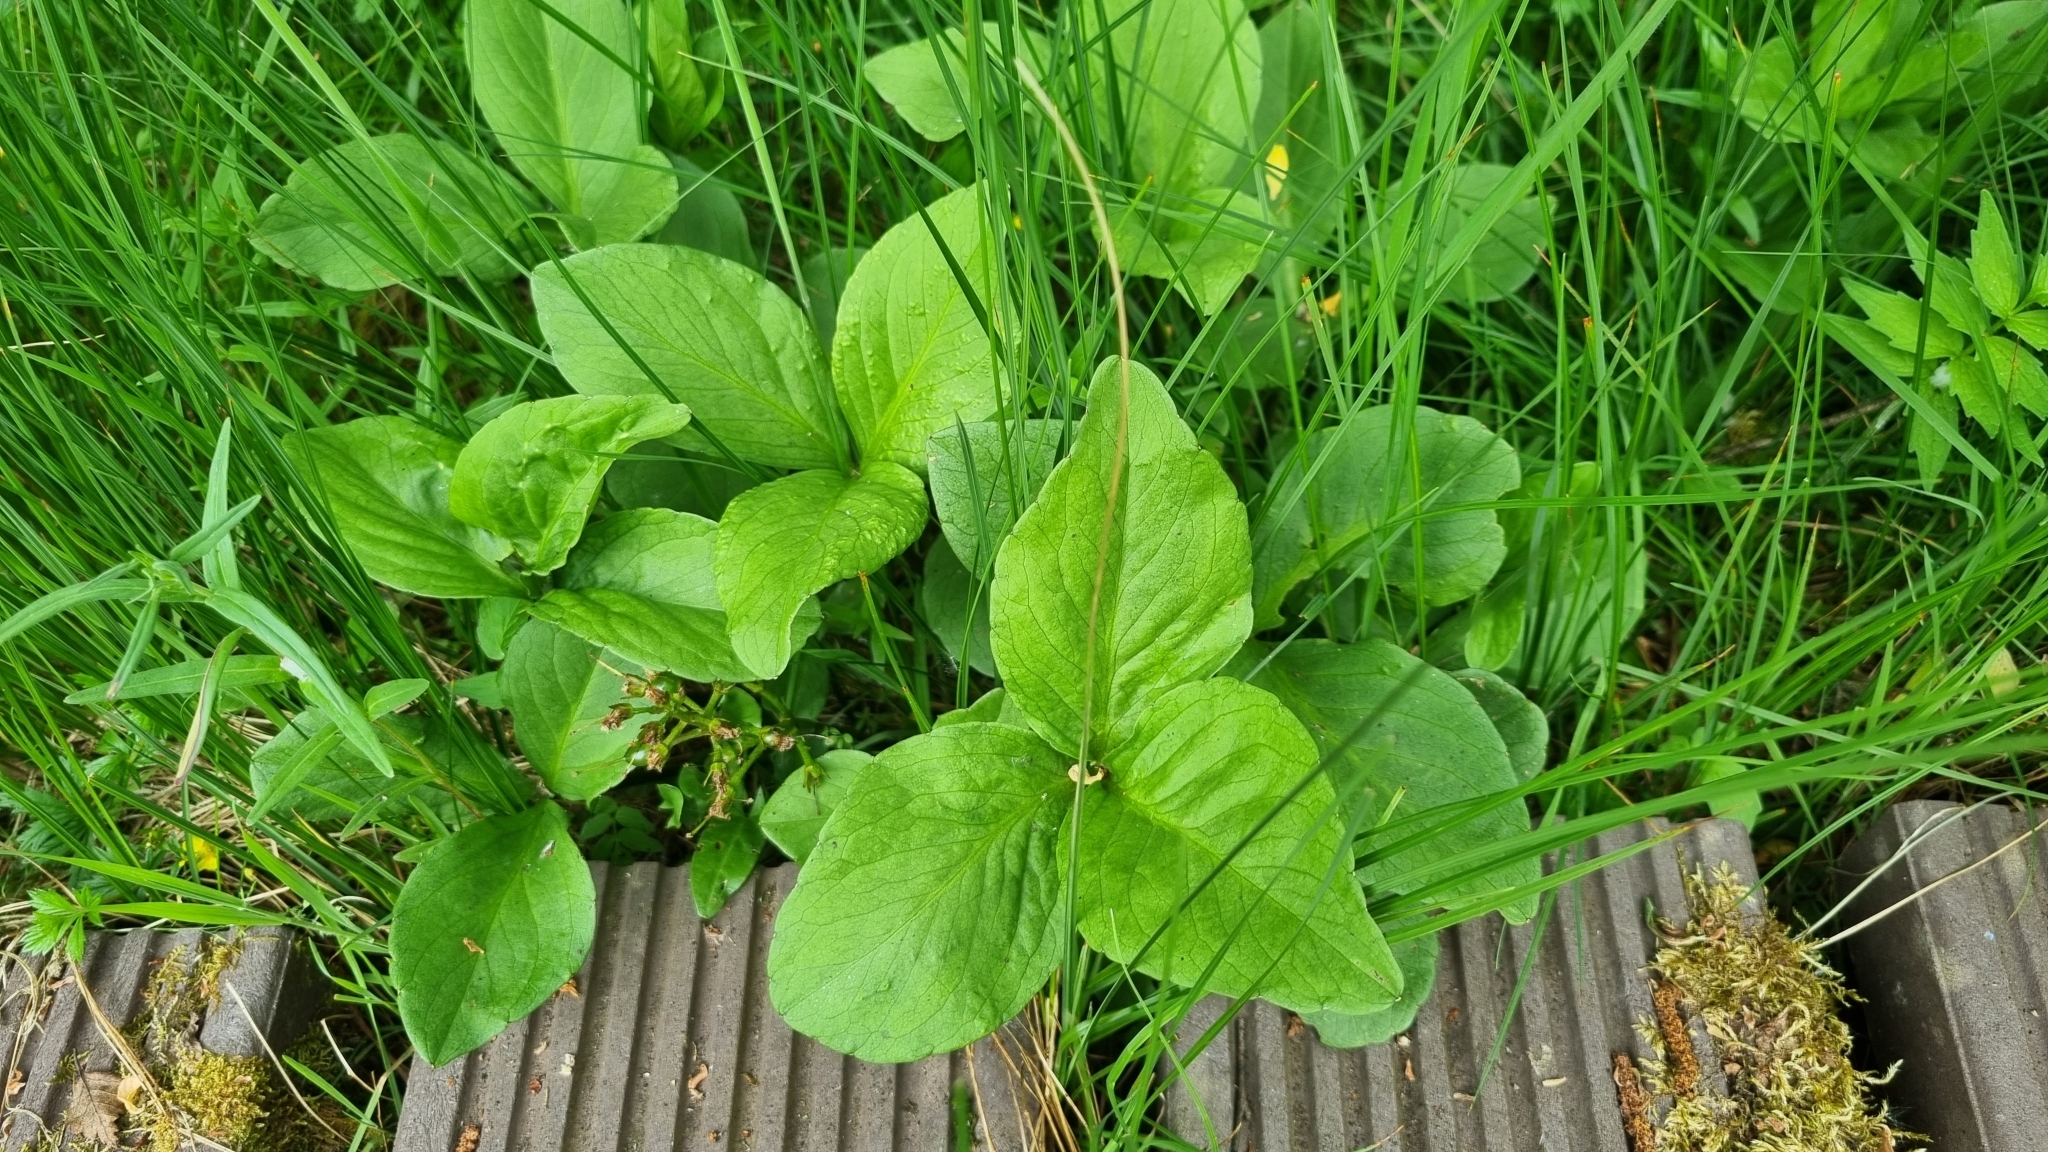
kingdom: Plantae
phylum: Tracheophyta
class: Magnoliopsida
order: Asterales
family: Menyanthaceae
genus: Menyanthes
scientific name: Menyanthes trifoliata
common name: Bogbean
